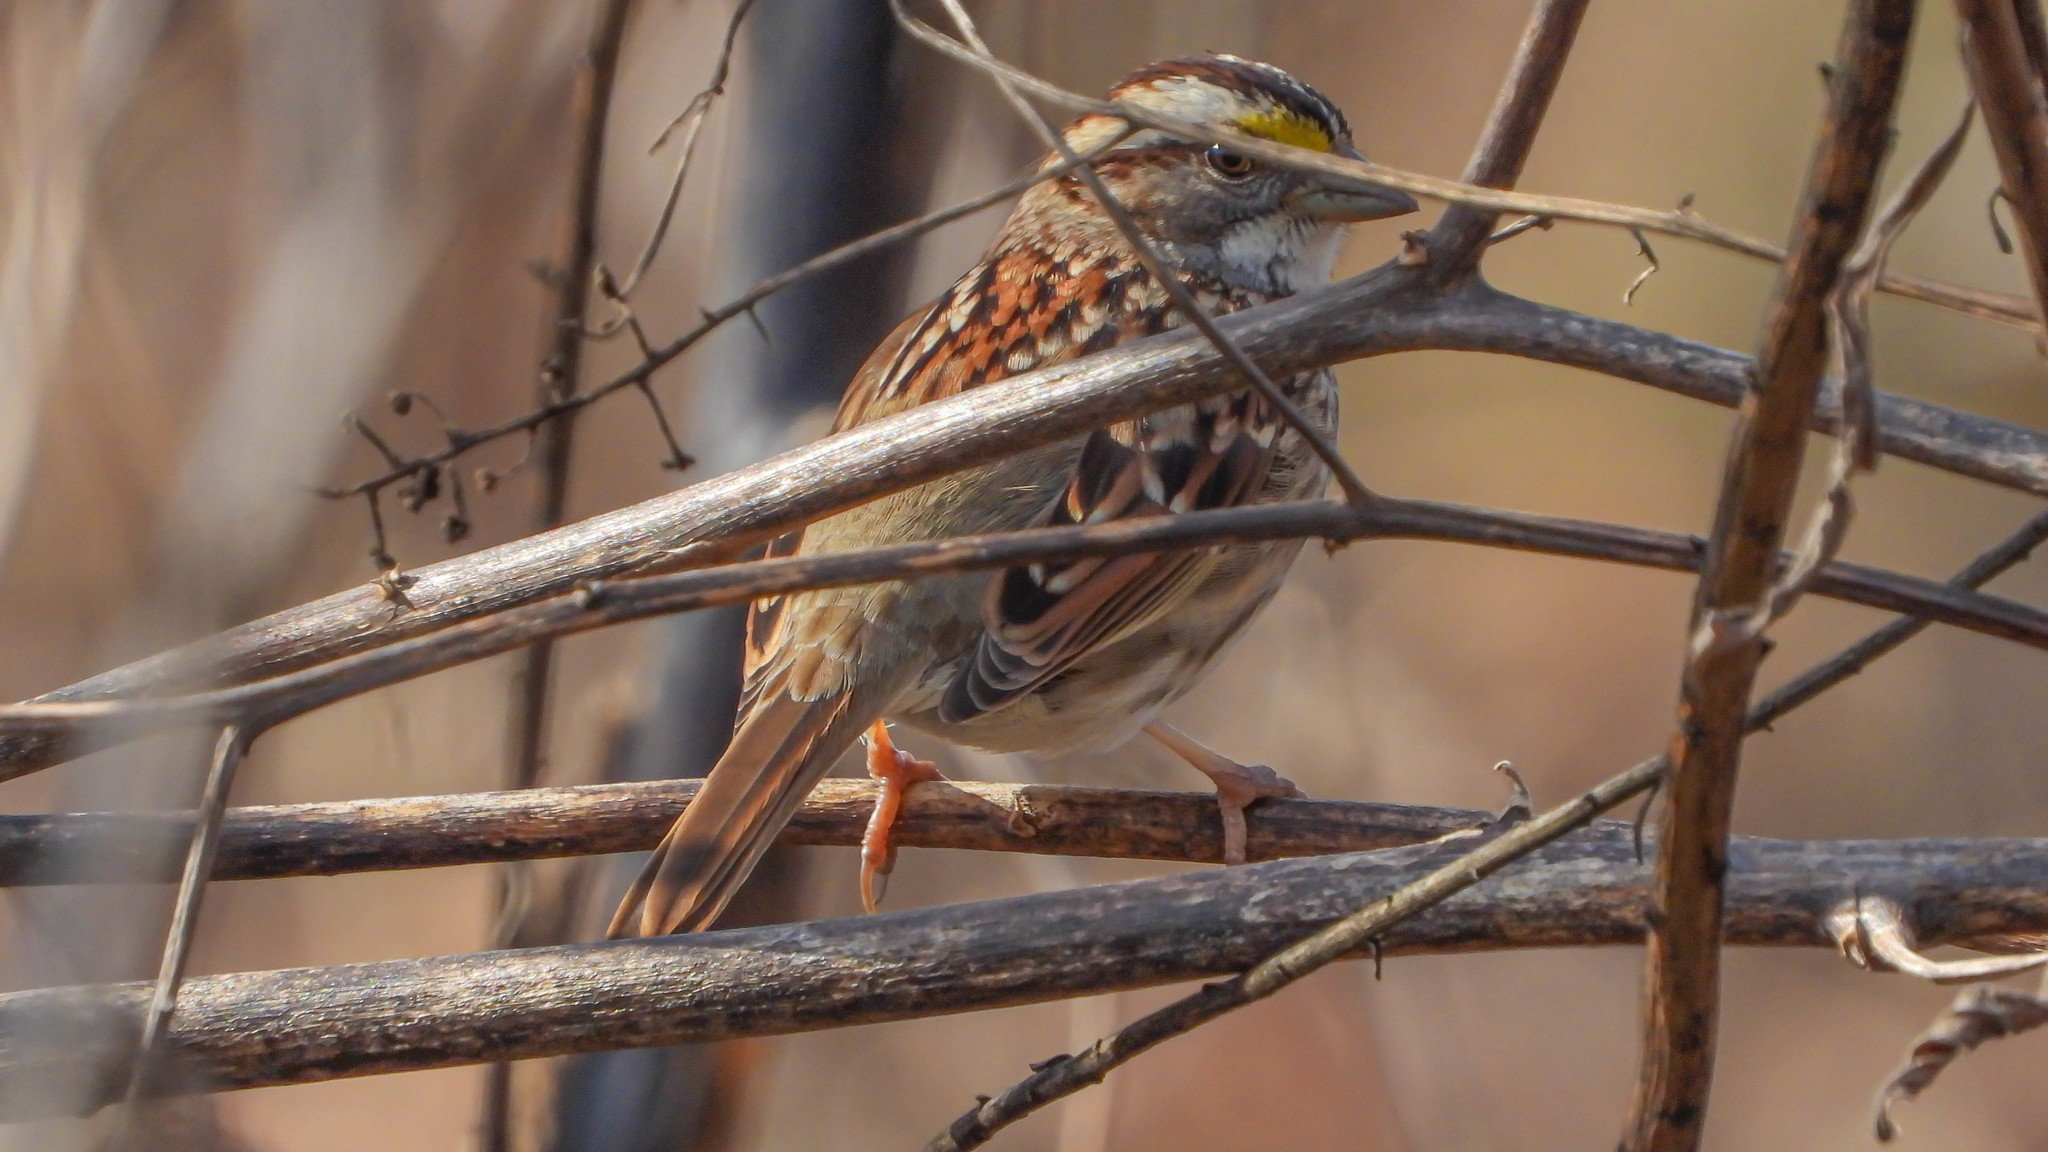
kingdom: Animalia
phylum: Chordata
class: Aves
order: Passeriformes
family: Passerellidae
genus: Zonotrichia
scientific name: Zonotrichia albicollis
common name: White-throated sparrow
